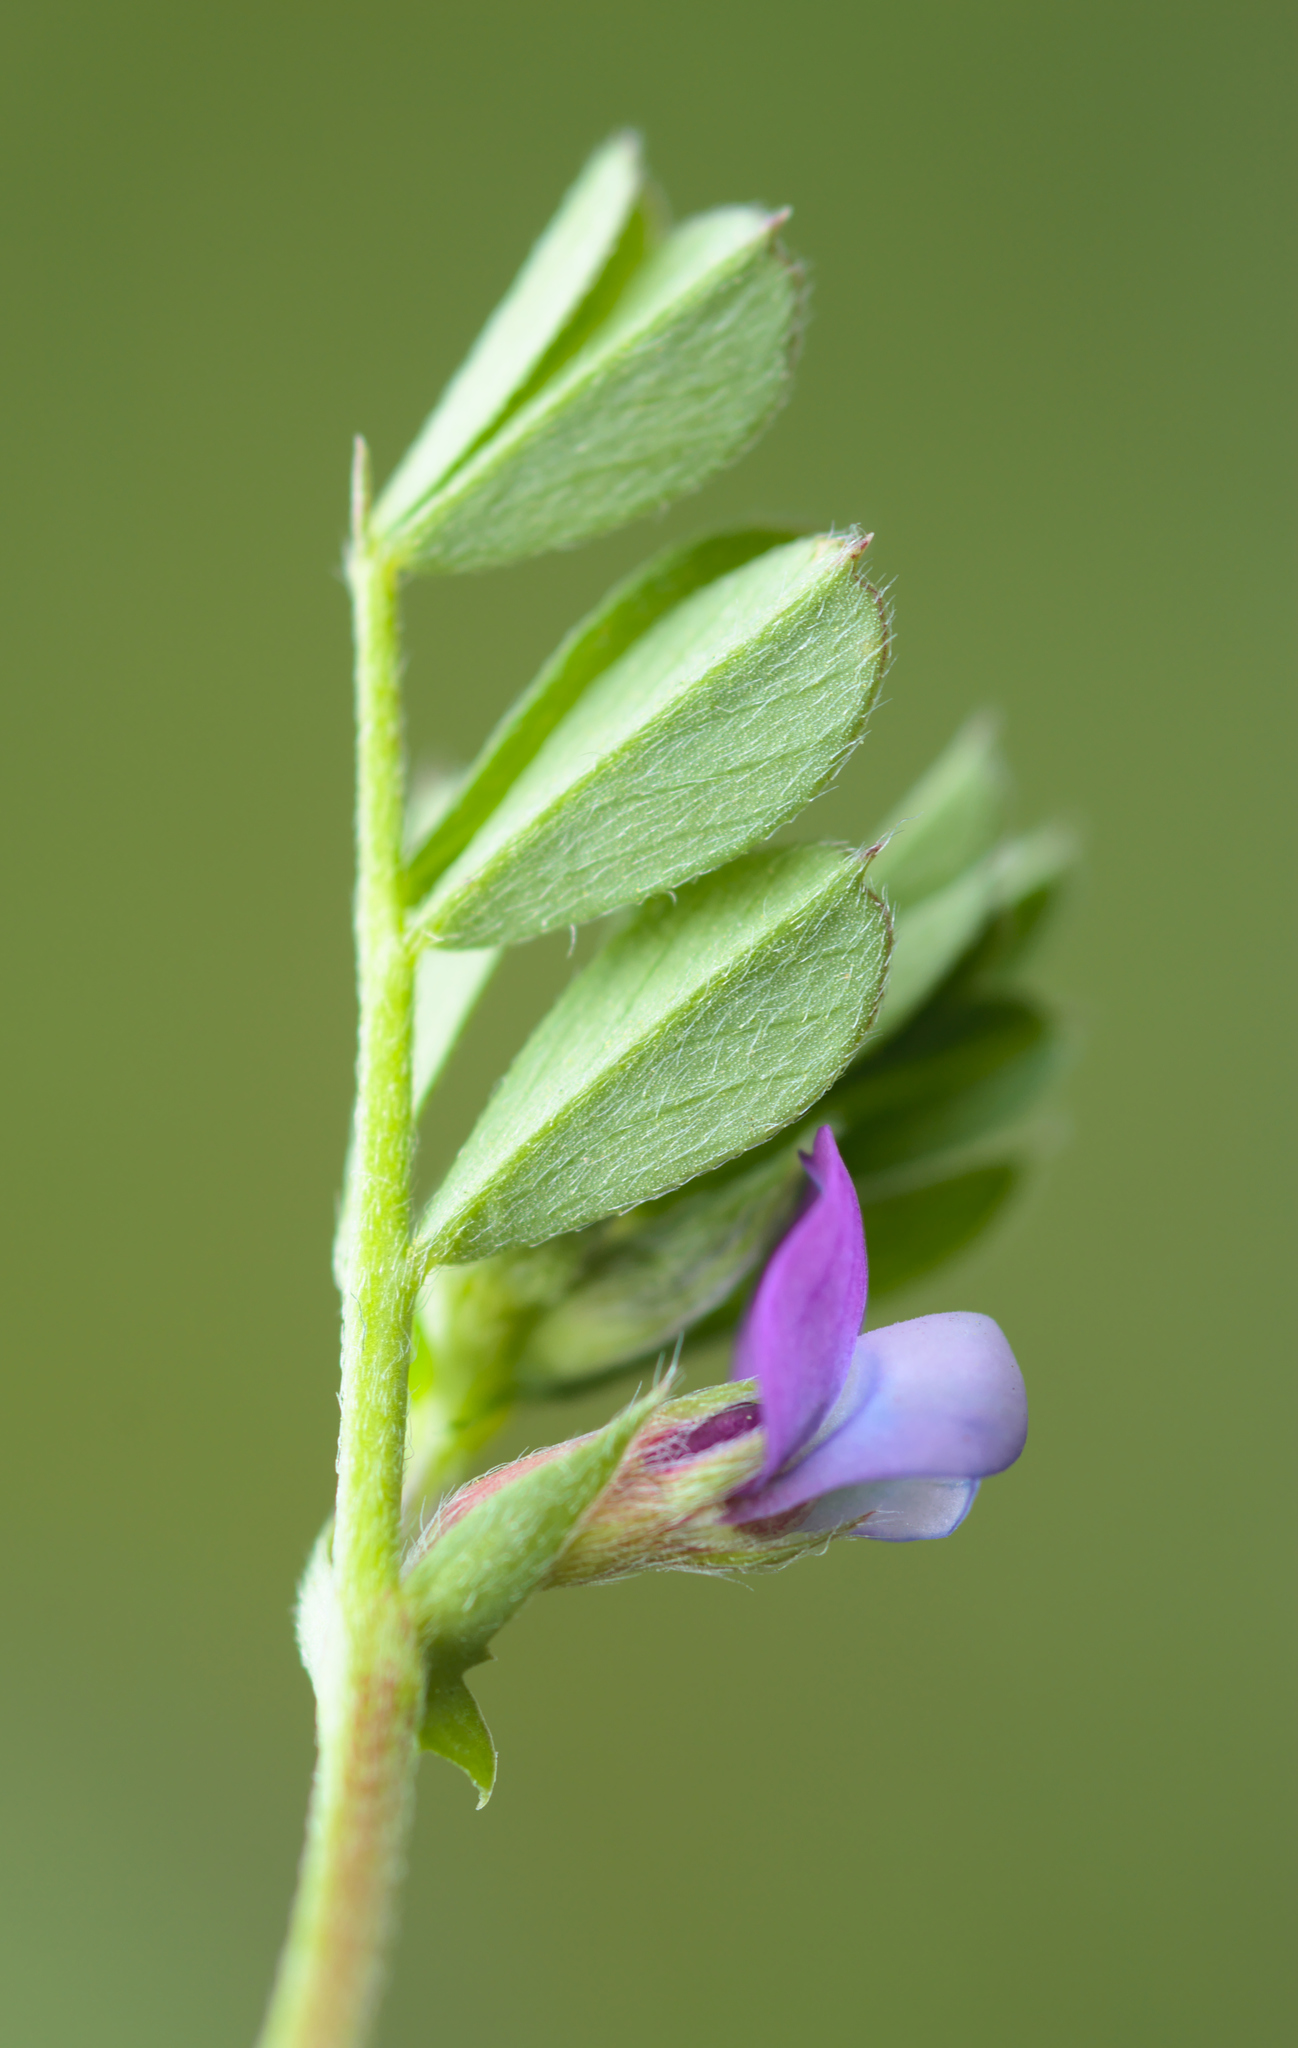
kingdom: Plantae
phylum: Tracheophyta
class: Magnoliopsida
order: Fabales
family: Fabaceae
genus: Vicia
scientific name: Vicia lathyroides
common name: Spring vetch
